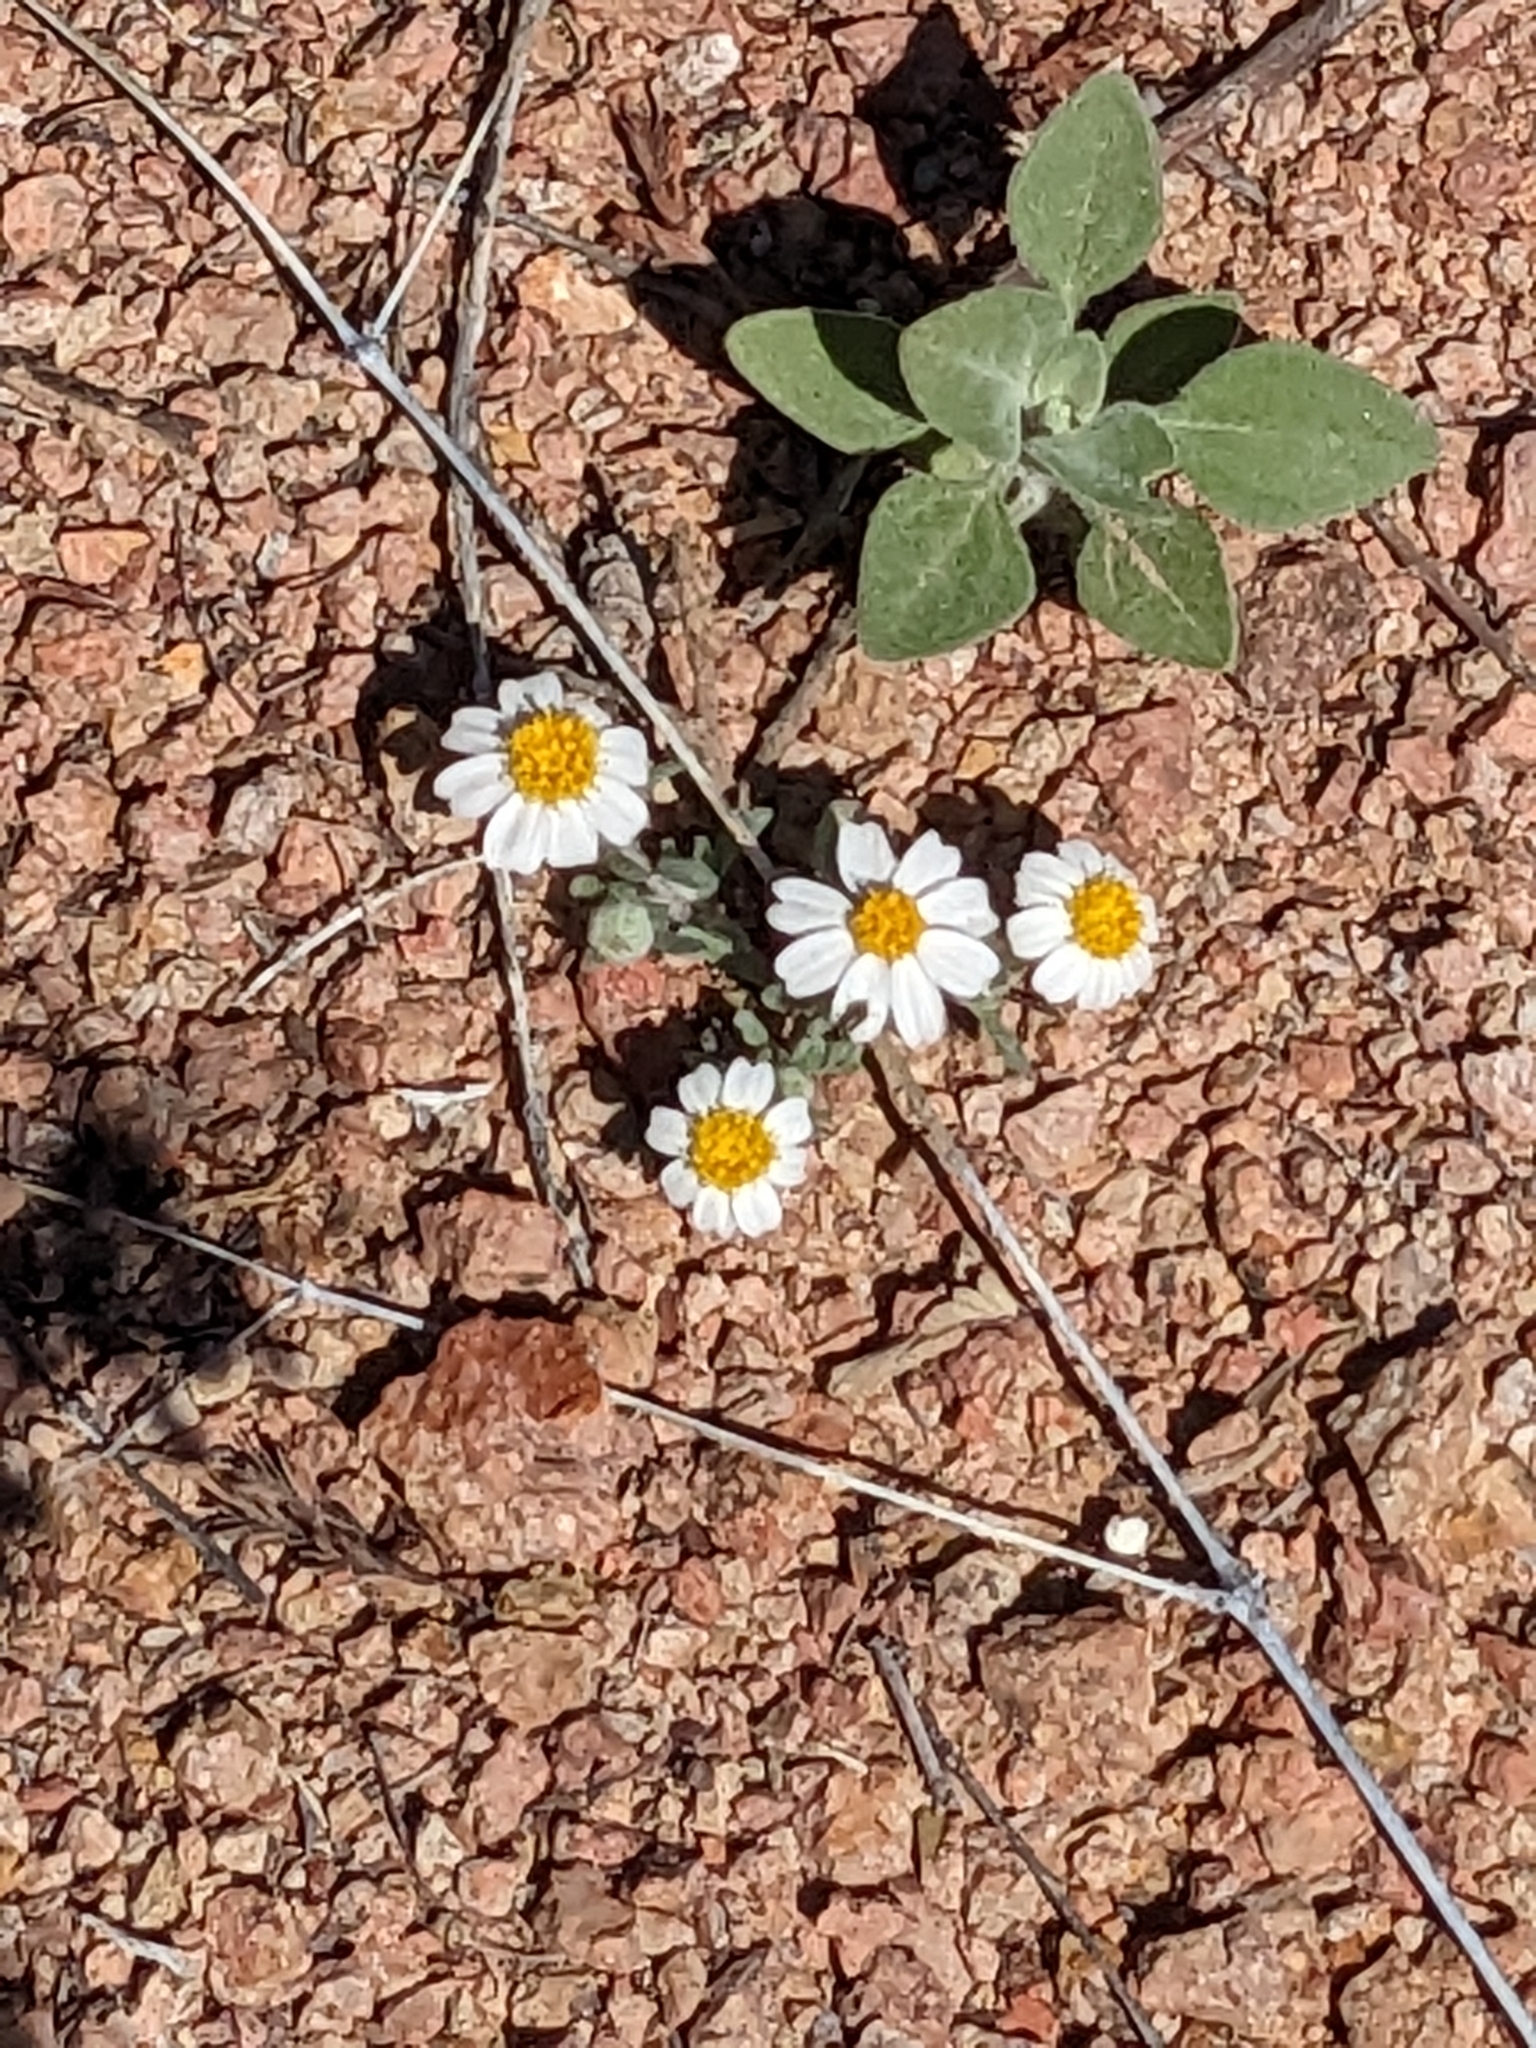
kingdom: Plantae
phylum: Tracheophyta
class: Magnoliopsida
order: Asterales
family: Asteraceae
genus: Laphamia
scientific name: Laphamia emoryi
